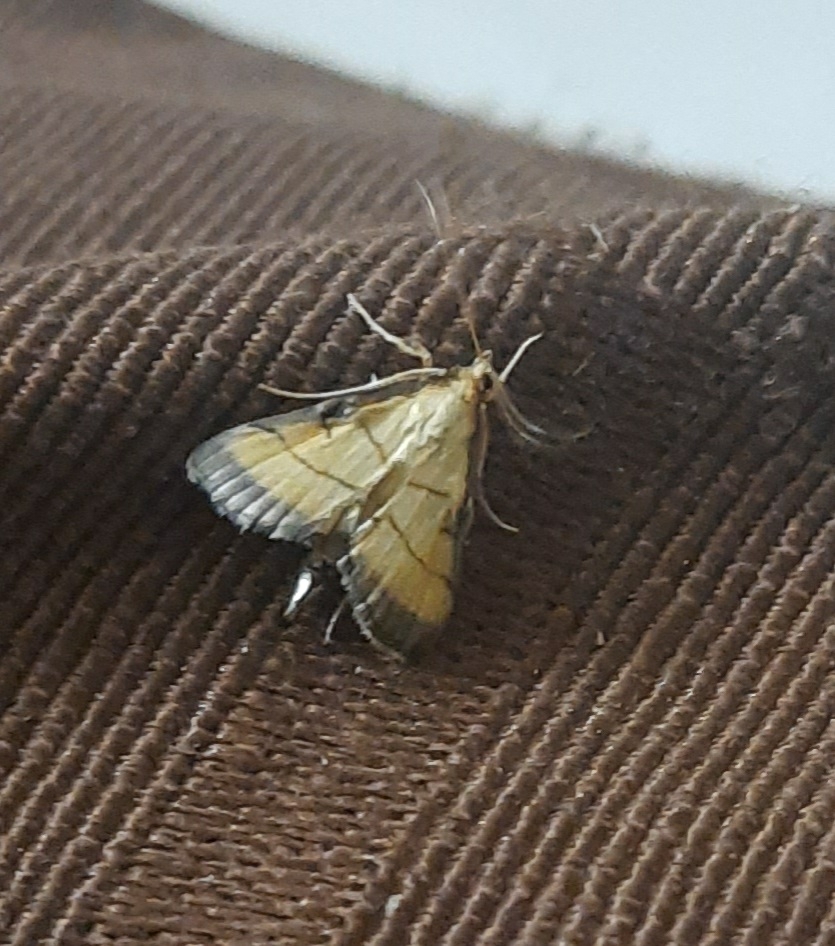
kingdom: Animalia
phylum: Arthropoda
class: Insecta
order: Lepidoptera
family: Crambidae
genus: Cnaphalocrocis
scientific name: Cnaphalocrocis medinalis
